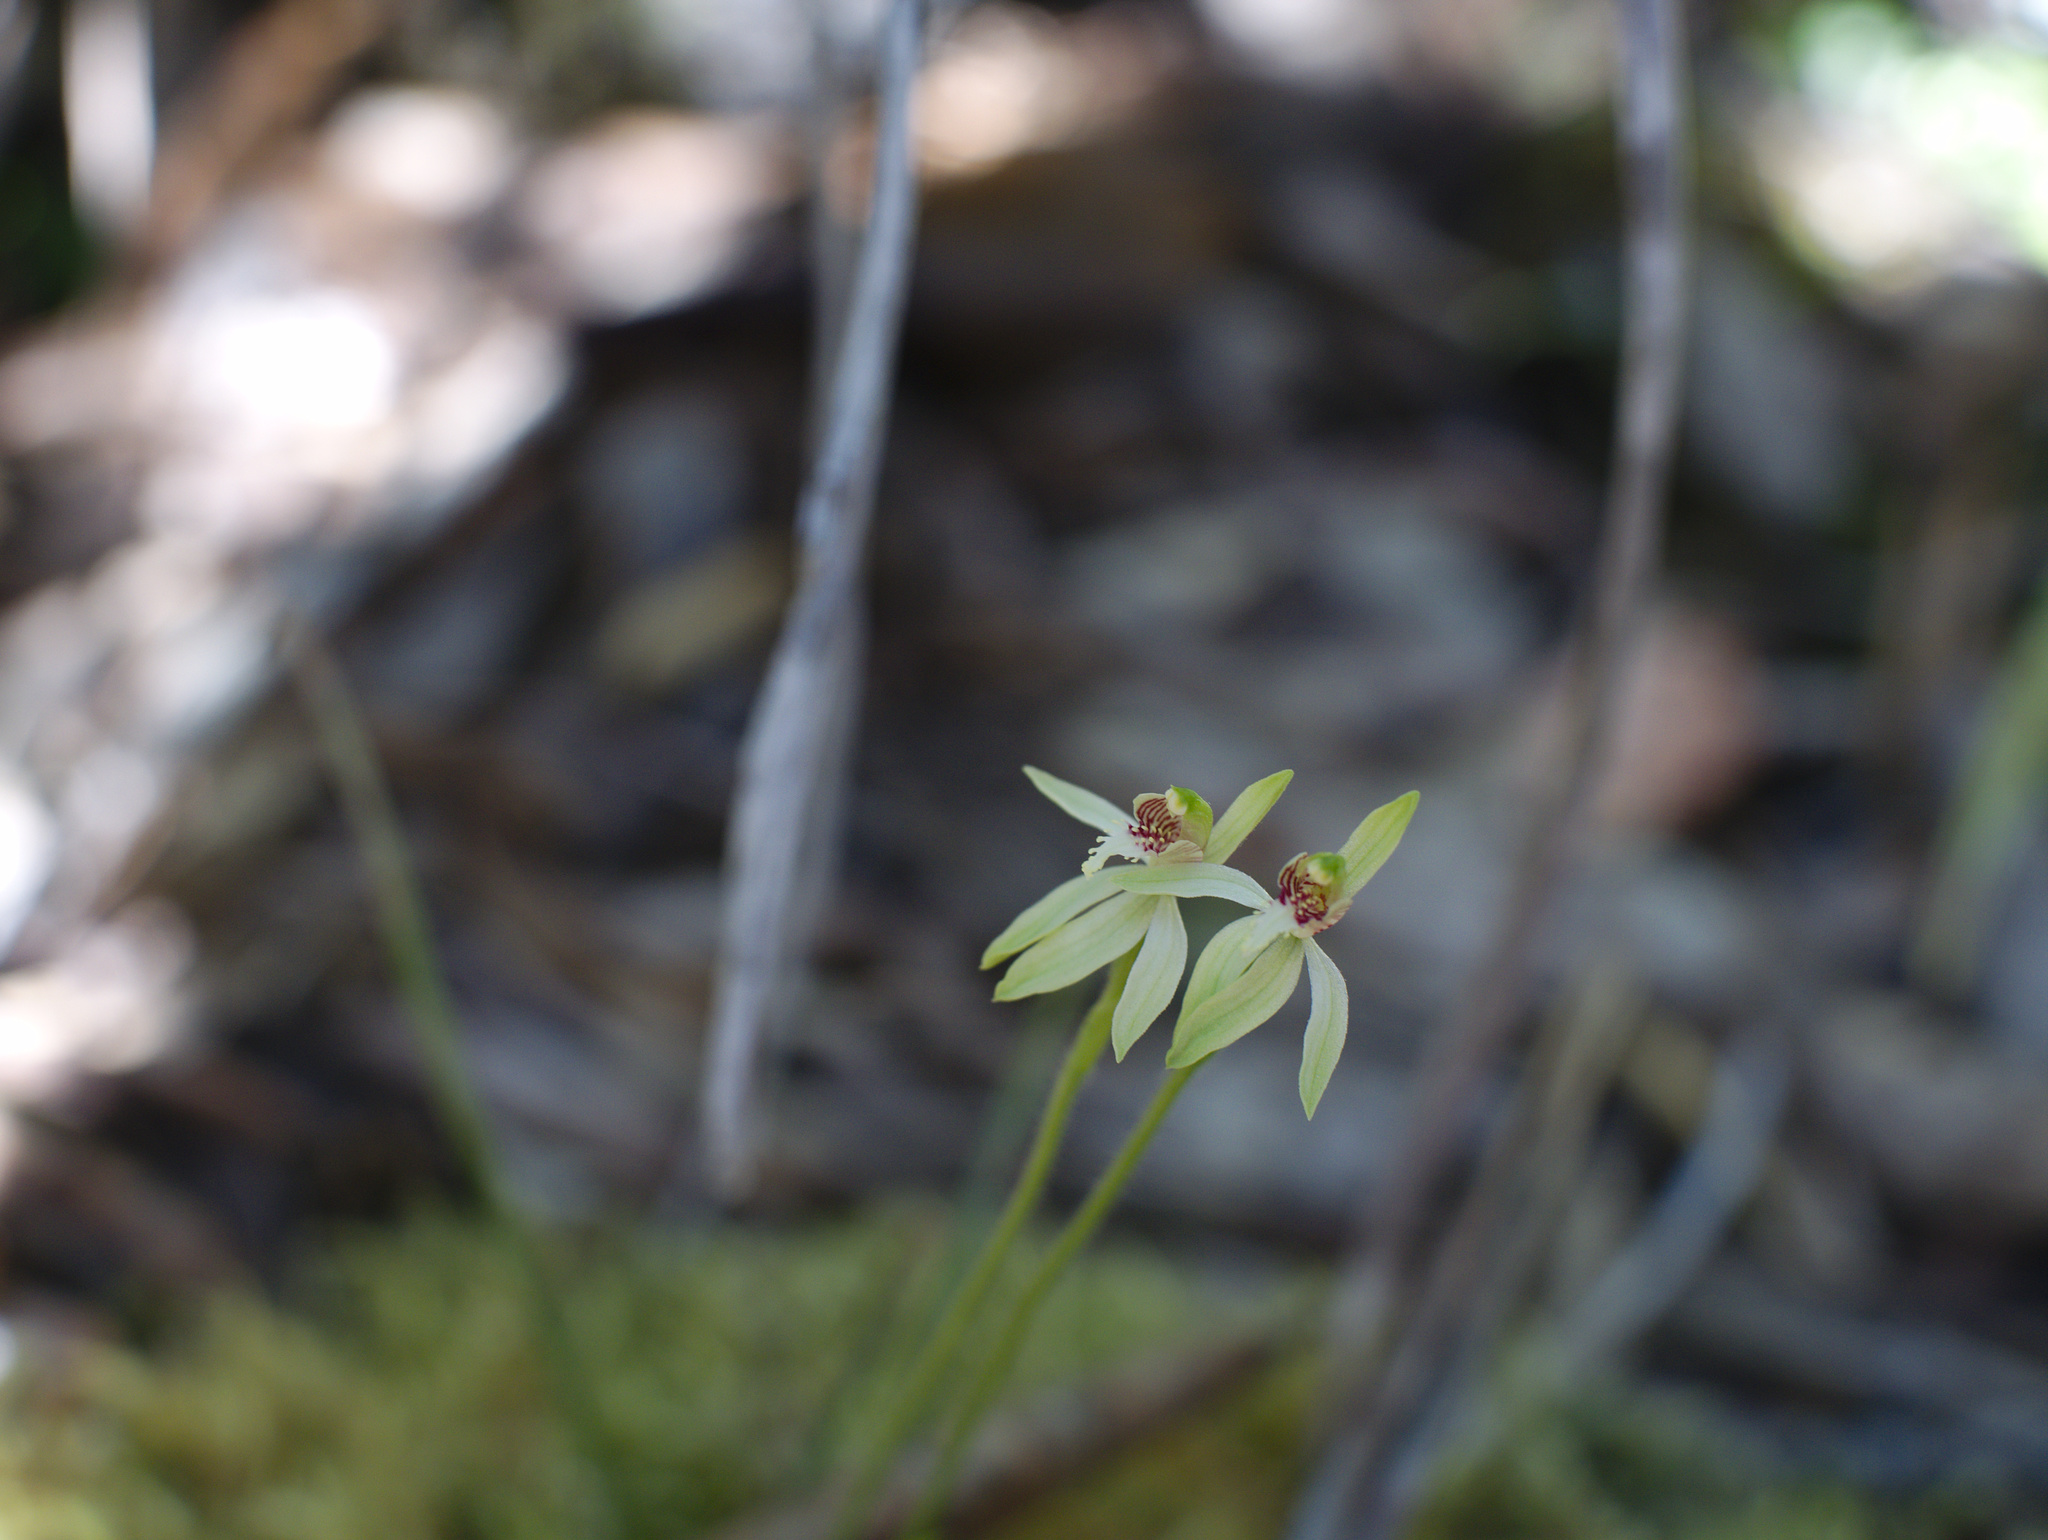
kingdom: Plantae
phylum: Tracheophyta
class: Liliopsida
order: Asparagales
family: Orchidaceae
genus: Caladenia
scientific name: Caladenia chlorostyla
